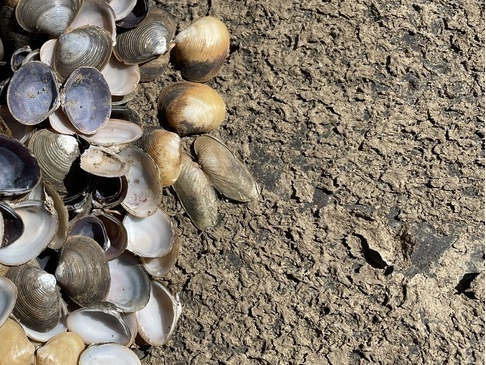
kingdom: Animalia
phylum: Mollusca
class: Bivalvia
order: Unionida
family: Hyriidae
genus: Cucumerunio
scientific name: Cucumerunio novaehollandiae
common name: Australian river mussel
